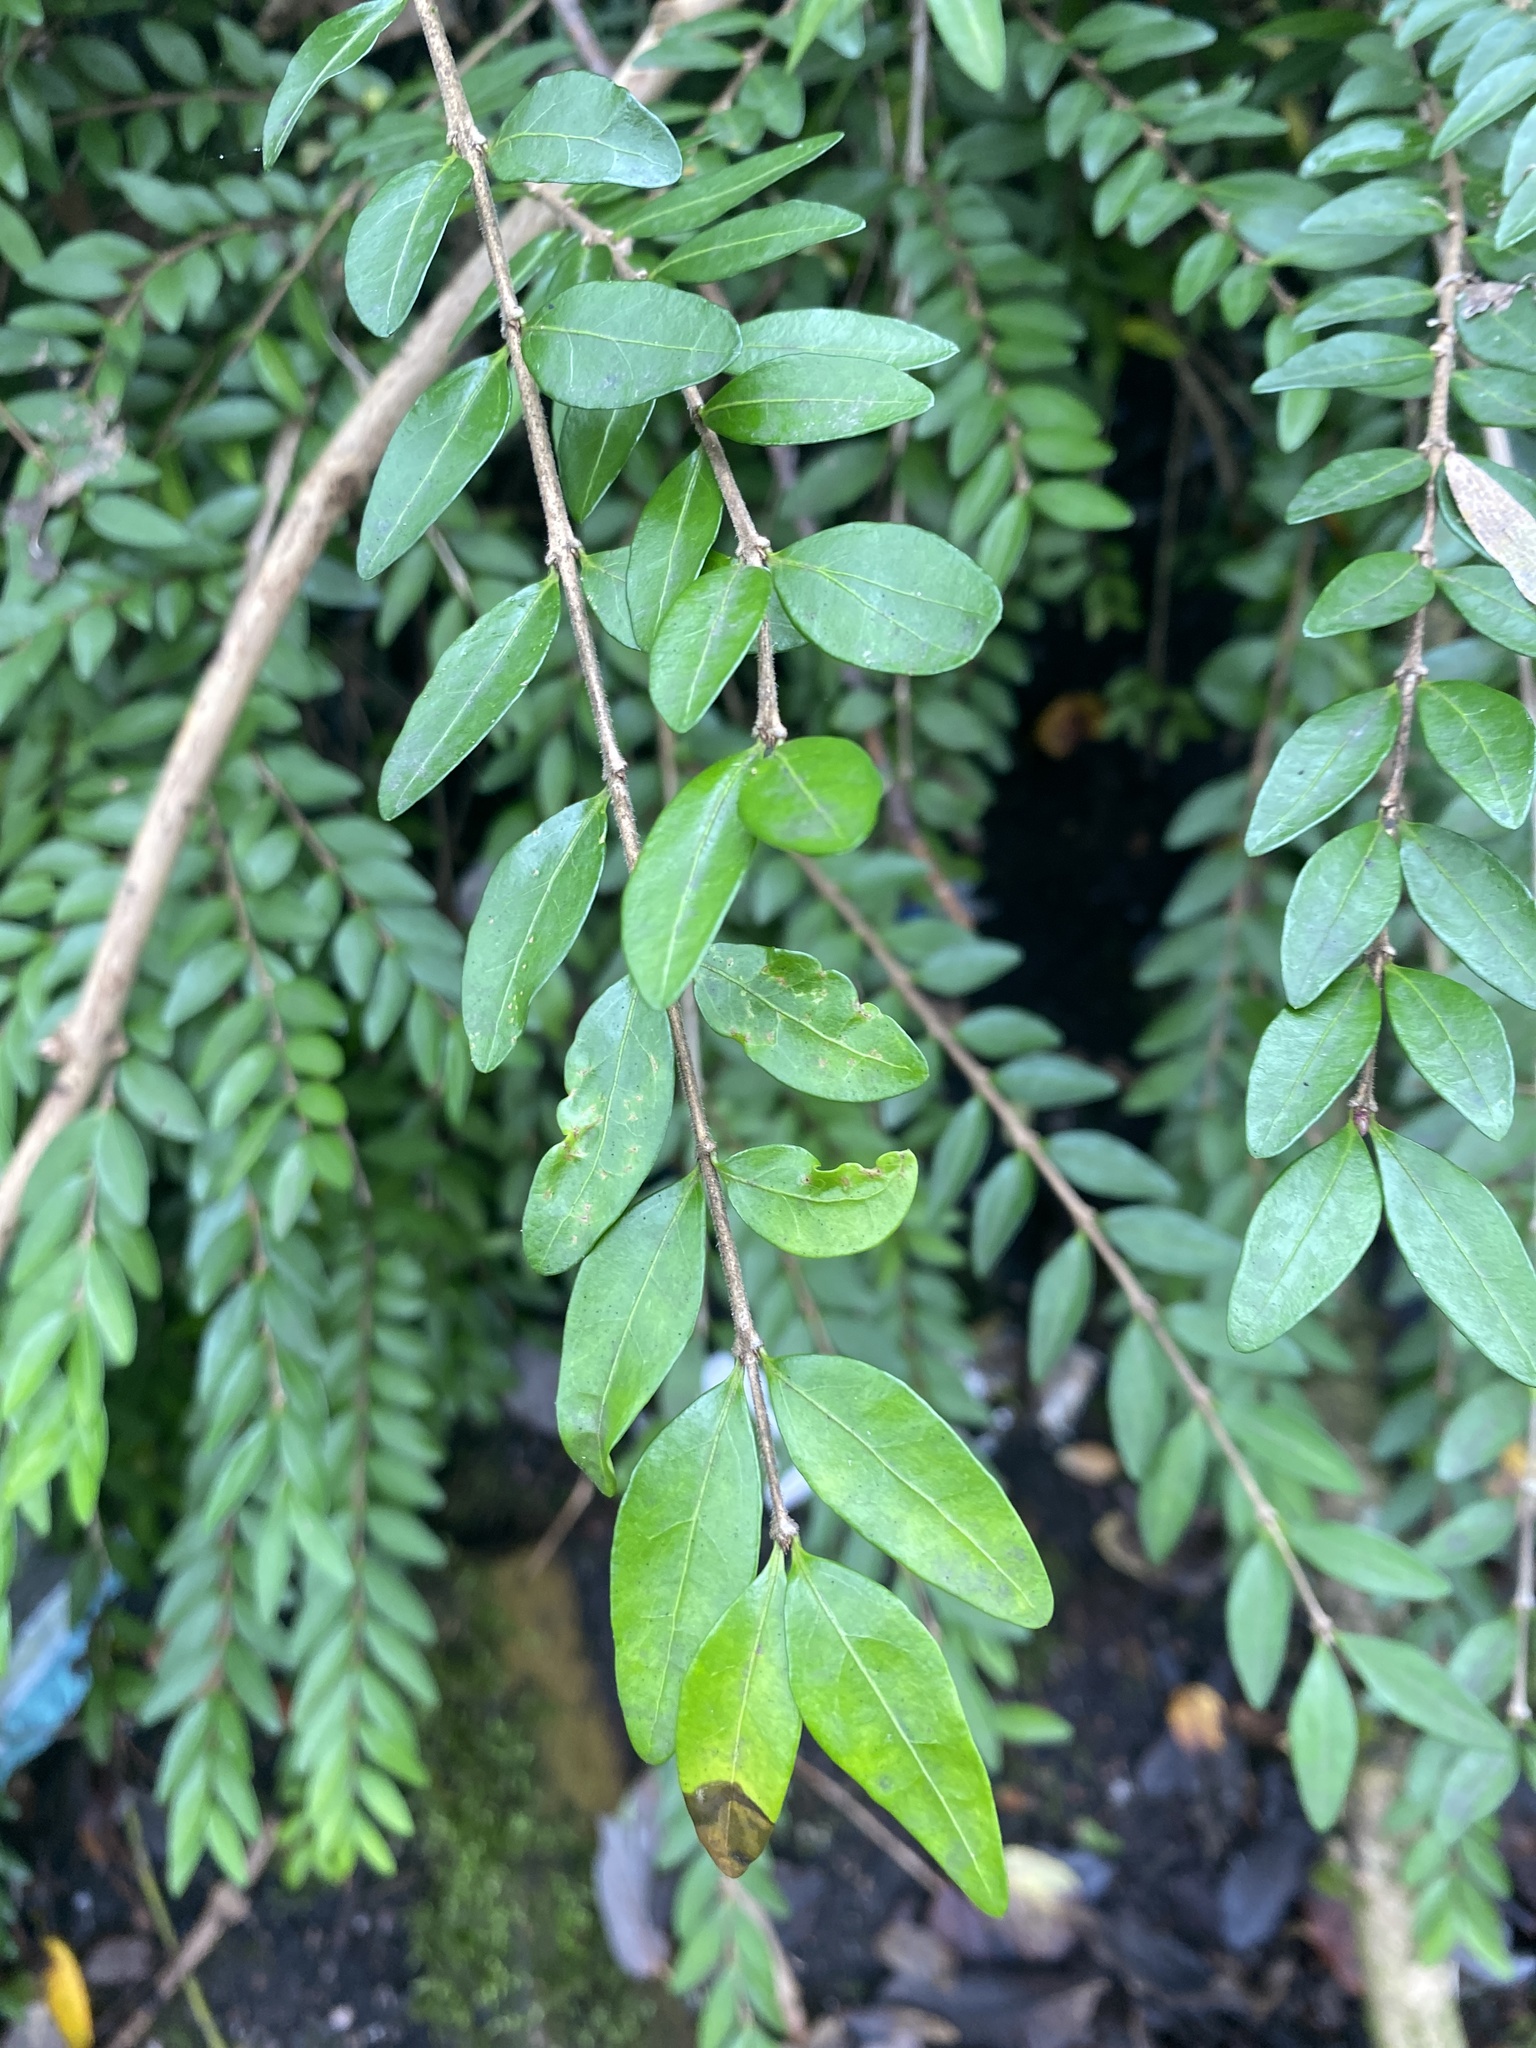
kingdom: Plantae
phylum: Tracheophyta
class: Magnoliopsida
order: Dipsacales
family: Caprifoliaceae
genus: Lonicera
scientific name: Lonicera pileata
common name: Box-leaved honeysuckle
